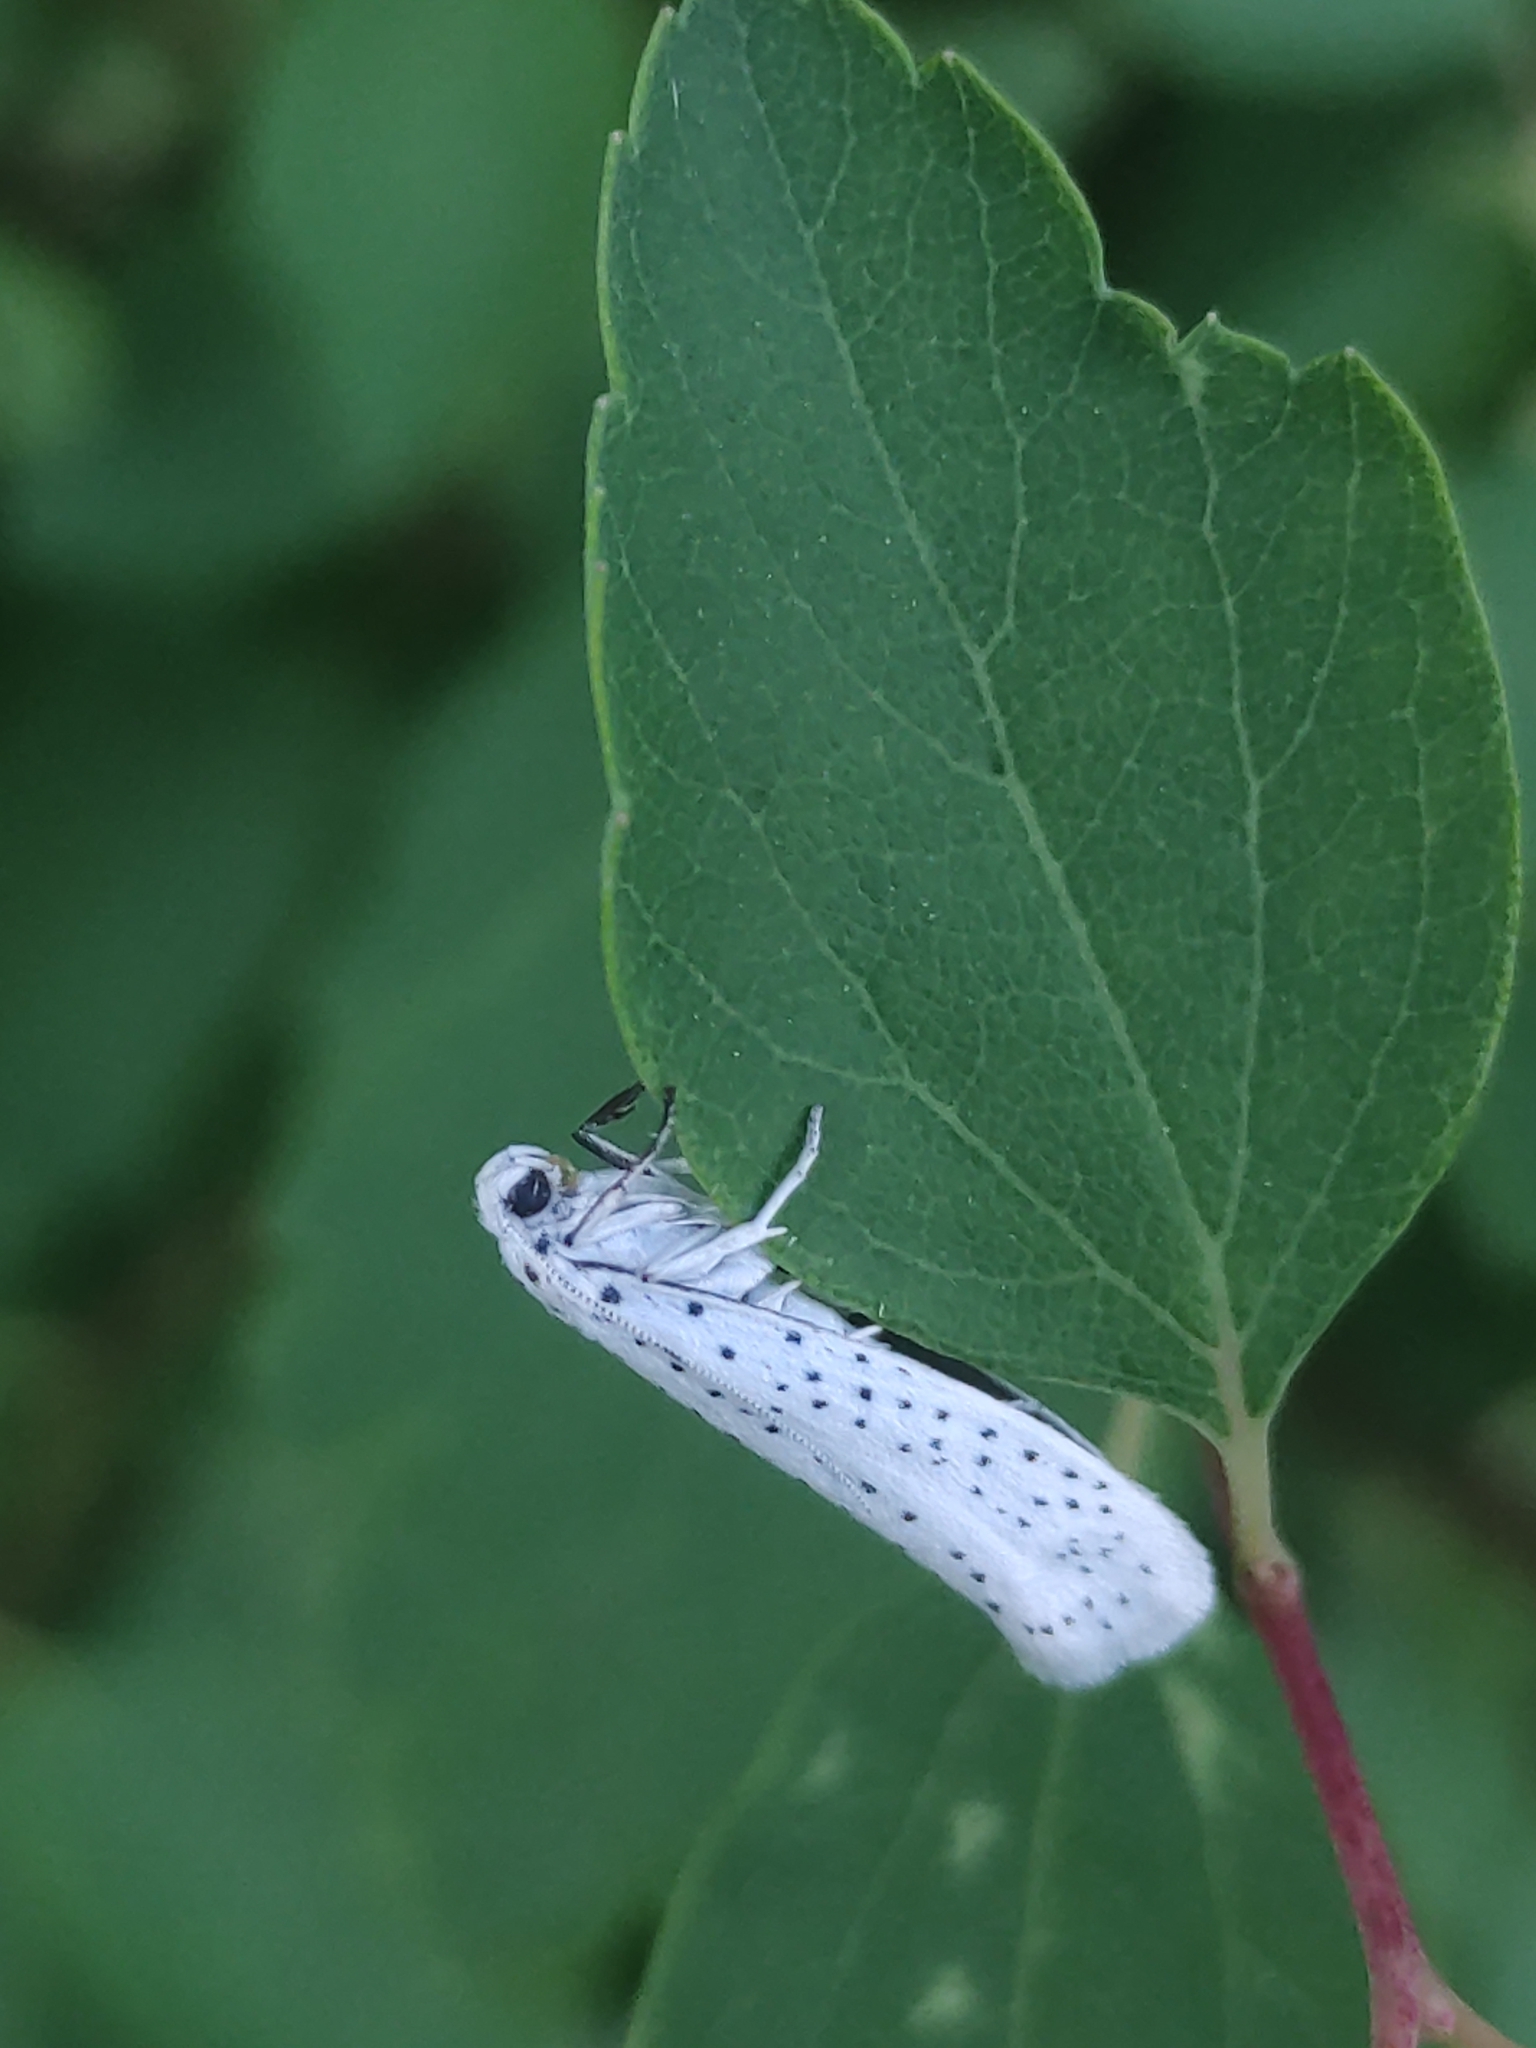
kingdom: Animalia
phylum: Arthropoda
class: Insecta
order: Lepidoptera
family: Yponomeutidae
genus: Yponomeuta
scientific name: Yponomeuta evonymella
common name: Bird-cherry ermine
